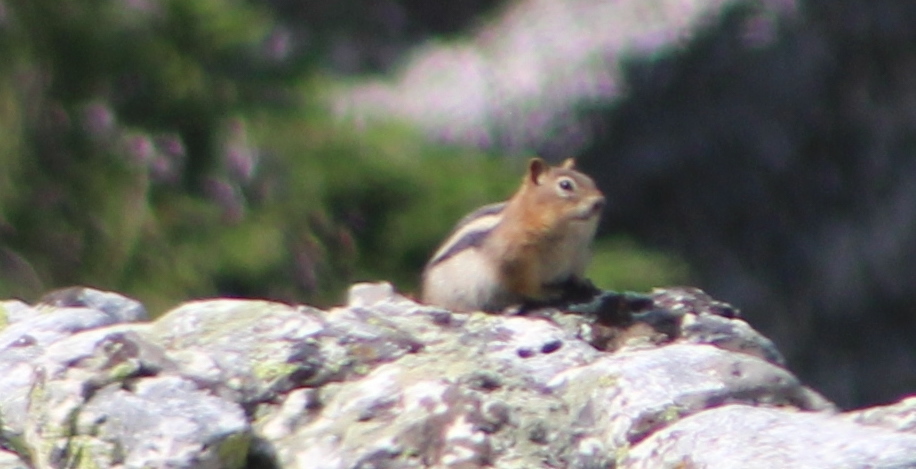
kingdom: Animalia
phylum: Chordata
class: Mammalia
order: Rodentia
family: Sciuridae
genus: Callospermophilus
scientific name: Callospermophilus lateralis
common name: Golden-mantled ground squirrel
